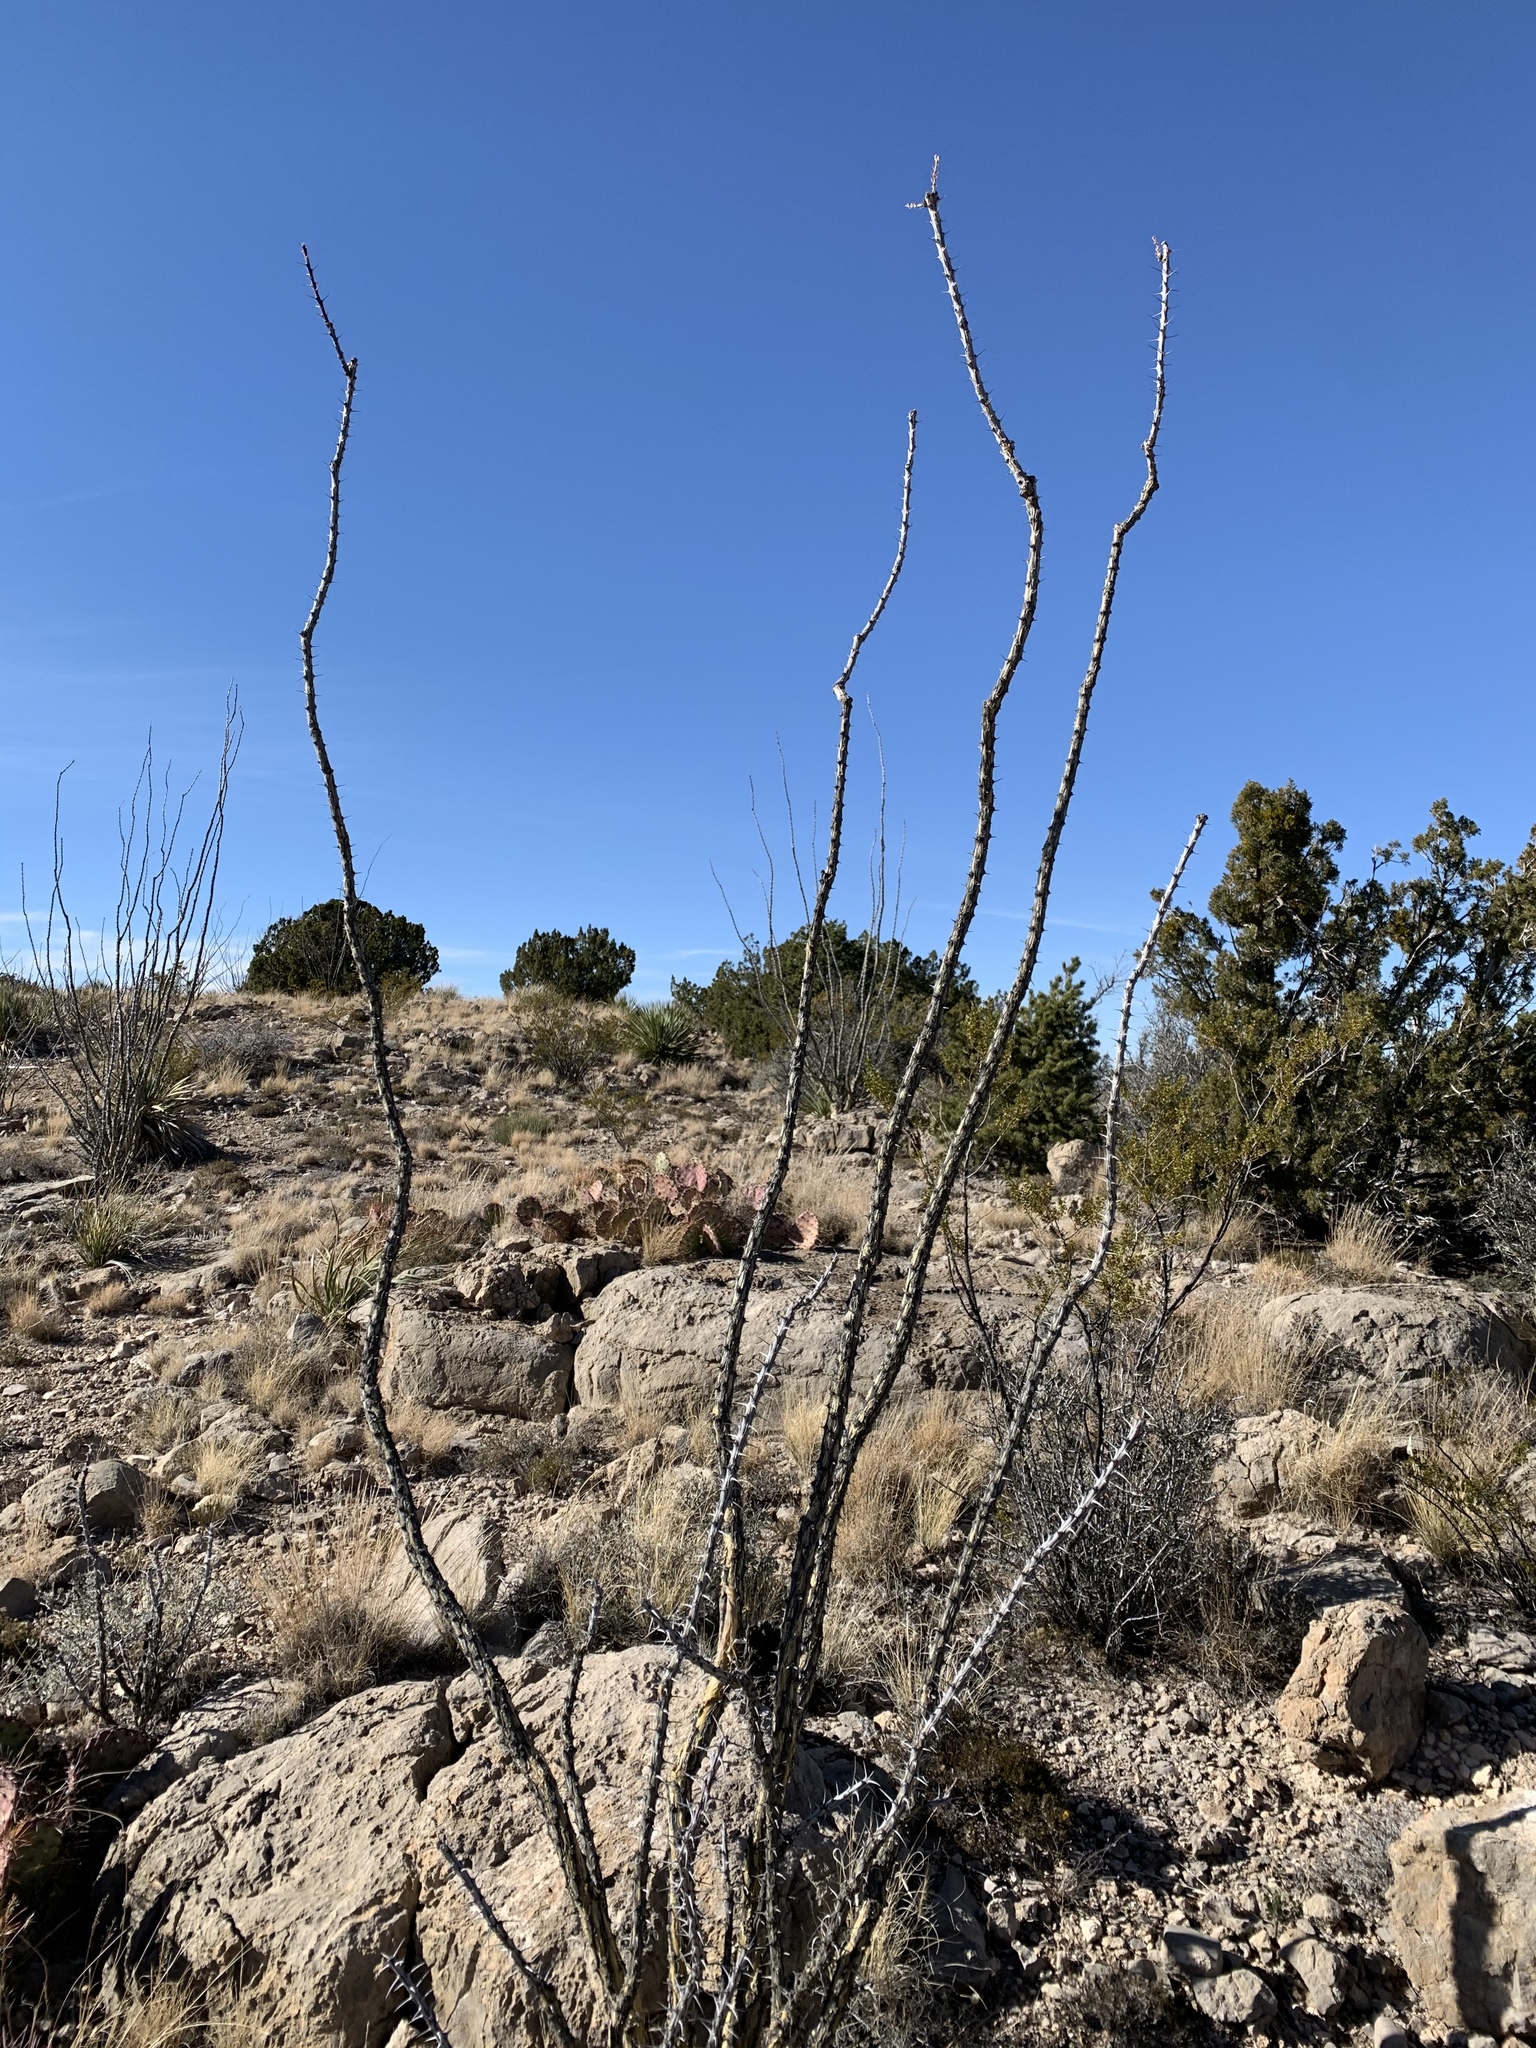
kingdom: Plantae
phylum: Tracheophyta
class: Magnoliopsida
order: Ericales
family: Fouquieriaceae
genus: Fouquieria
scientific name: Fouquieria splendens
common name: Vine-cactus
